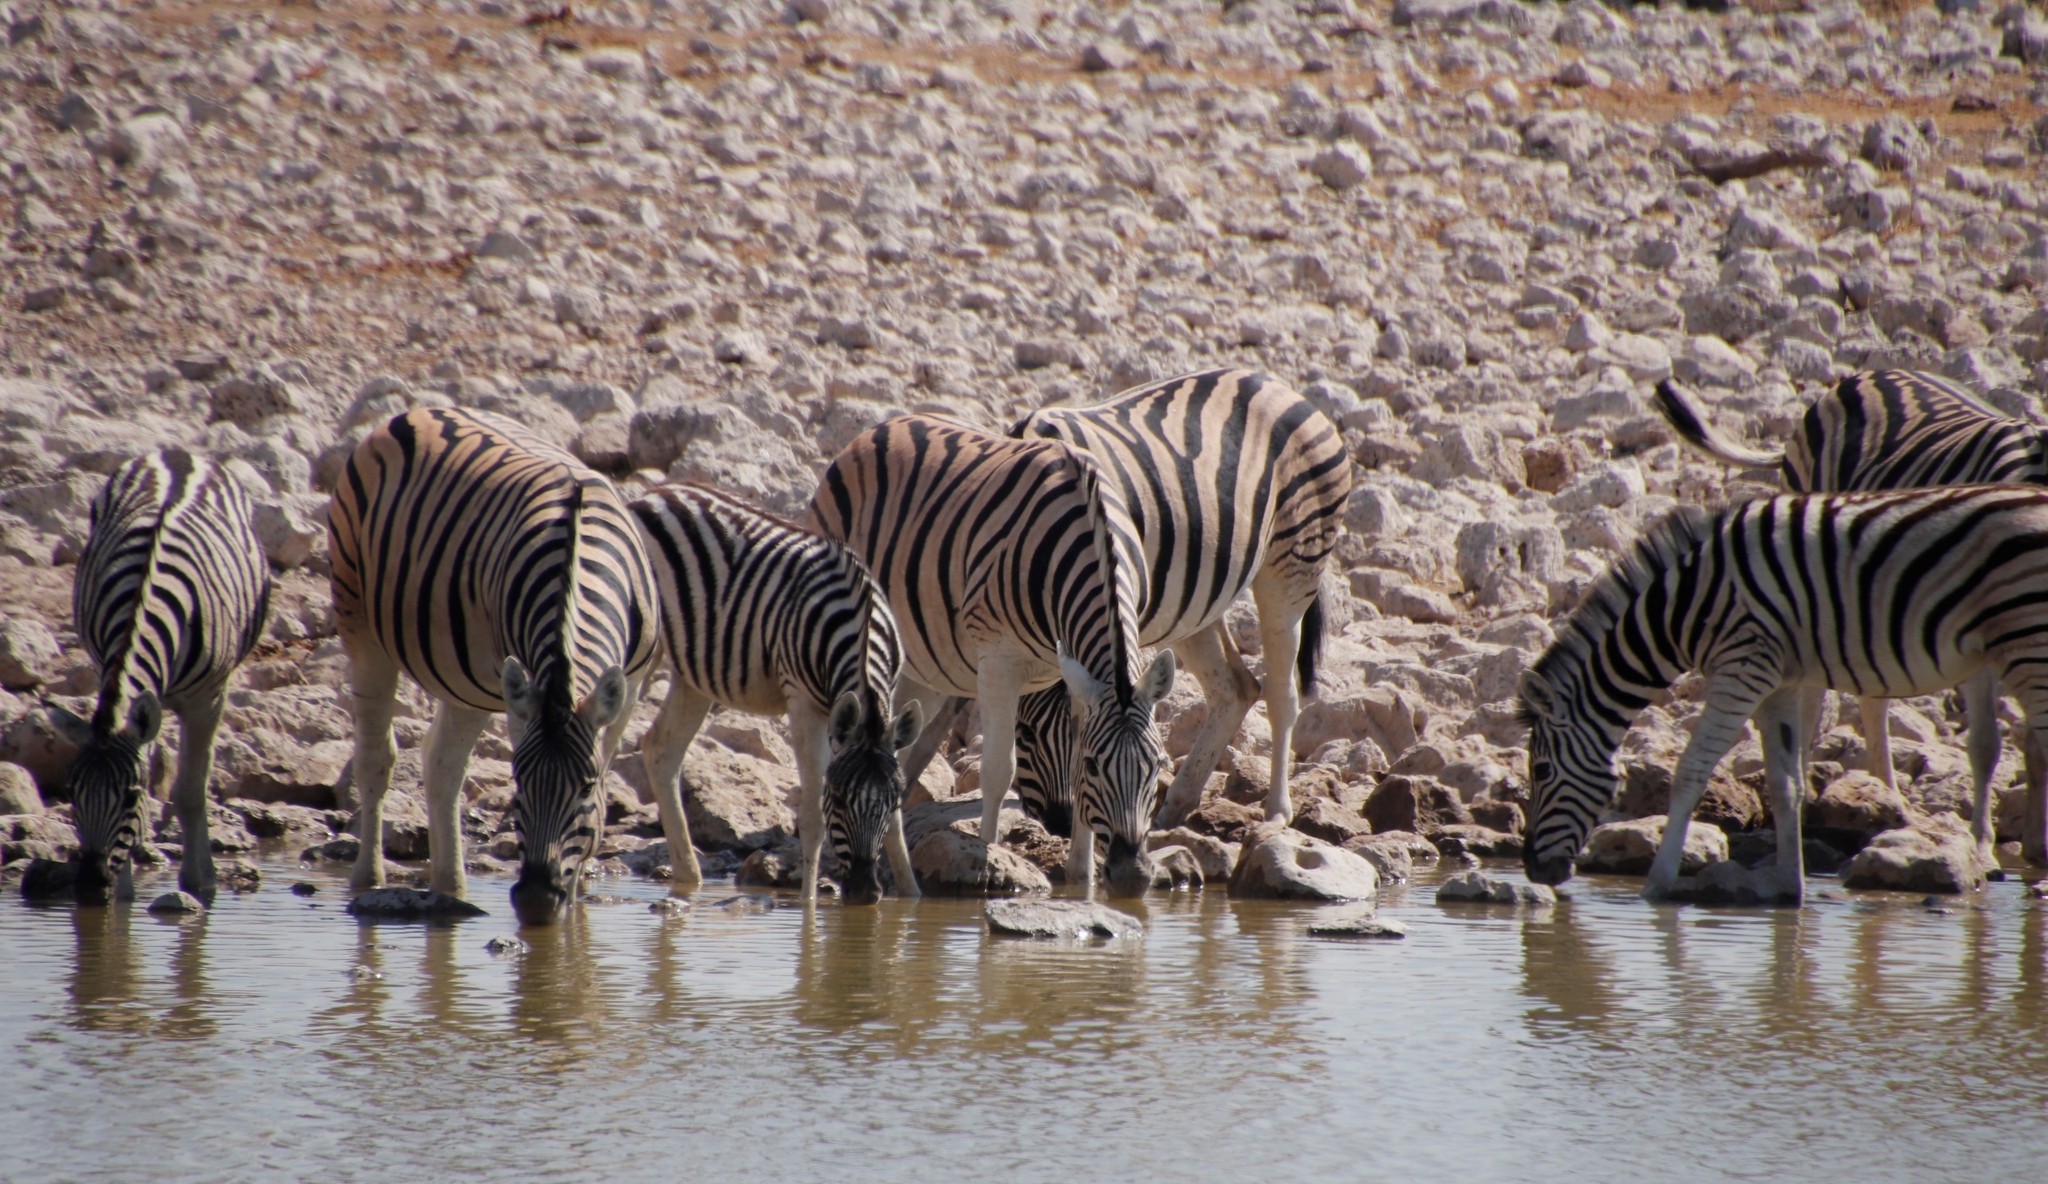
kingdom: Animalia
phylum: Chordata
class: Mammalia
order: Perissodactyla
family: Equidae
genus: Equus
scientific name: Equus quagga
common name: Plains zebra
